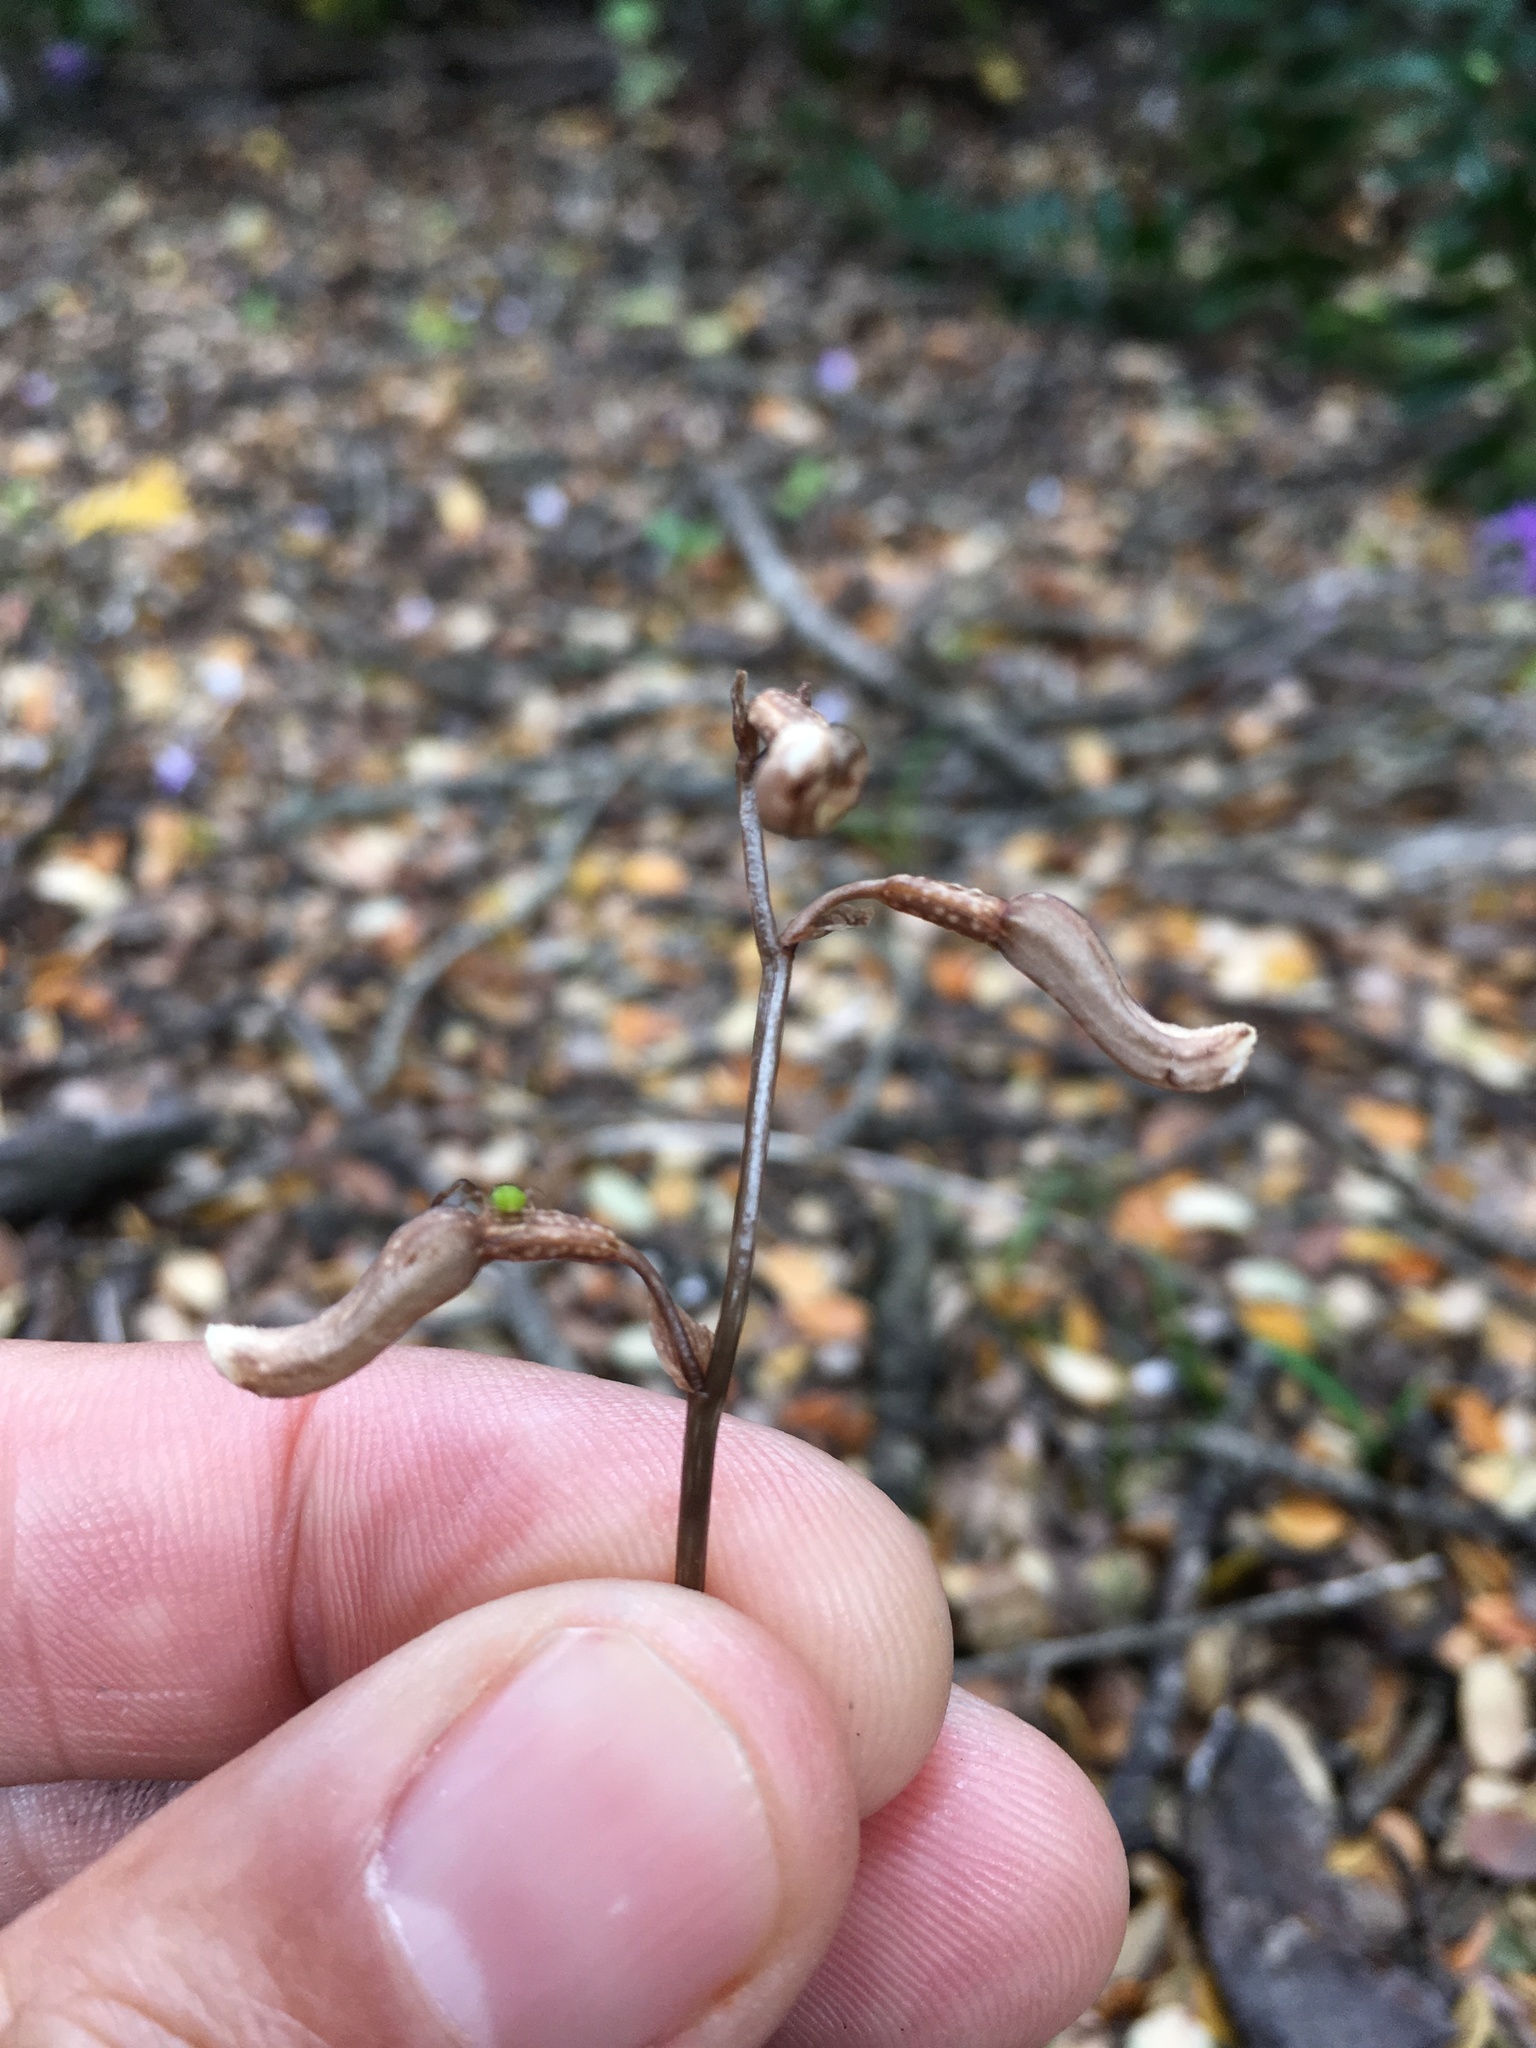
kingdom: Plantae
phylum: Tracheophyta
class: Liliopsida
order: Asparagales
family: Orchidaceae
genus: Gastrodia
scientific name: Gastrodia minor
